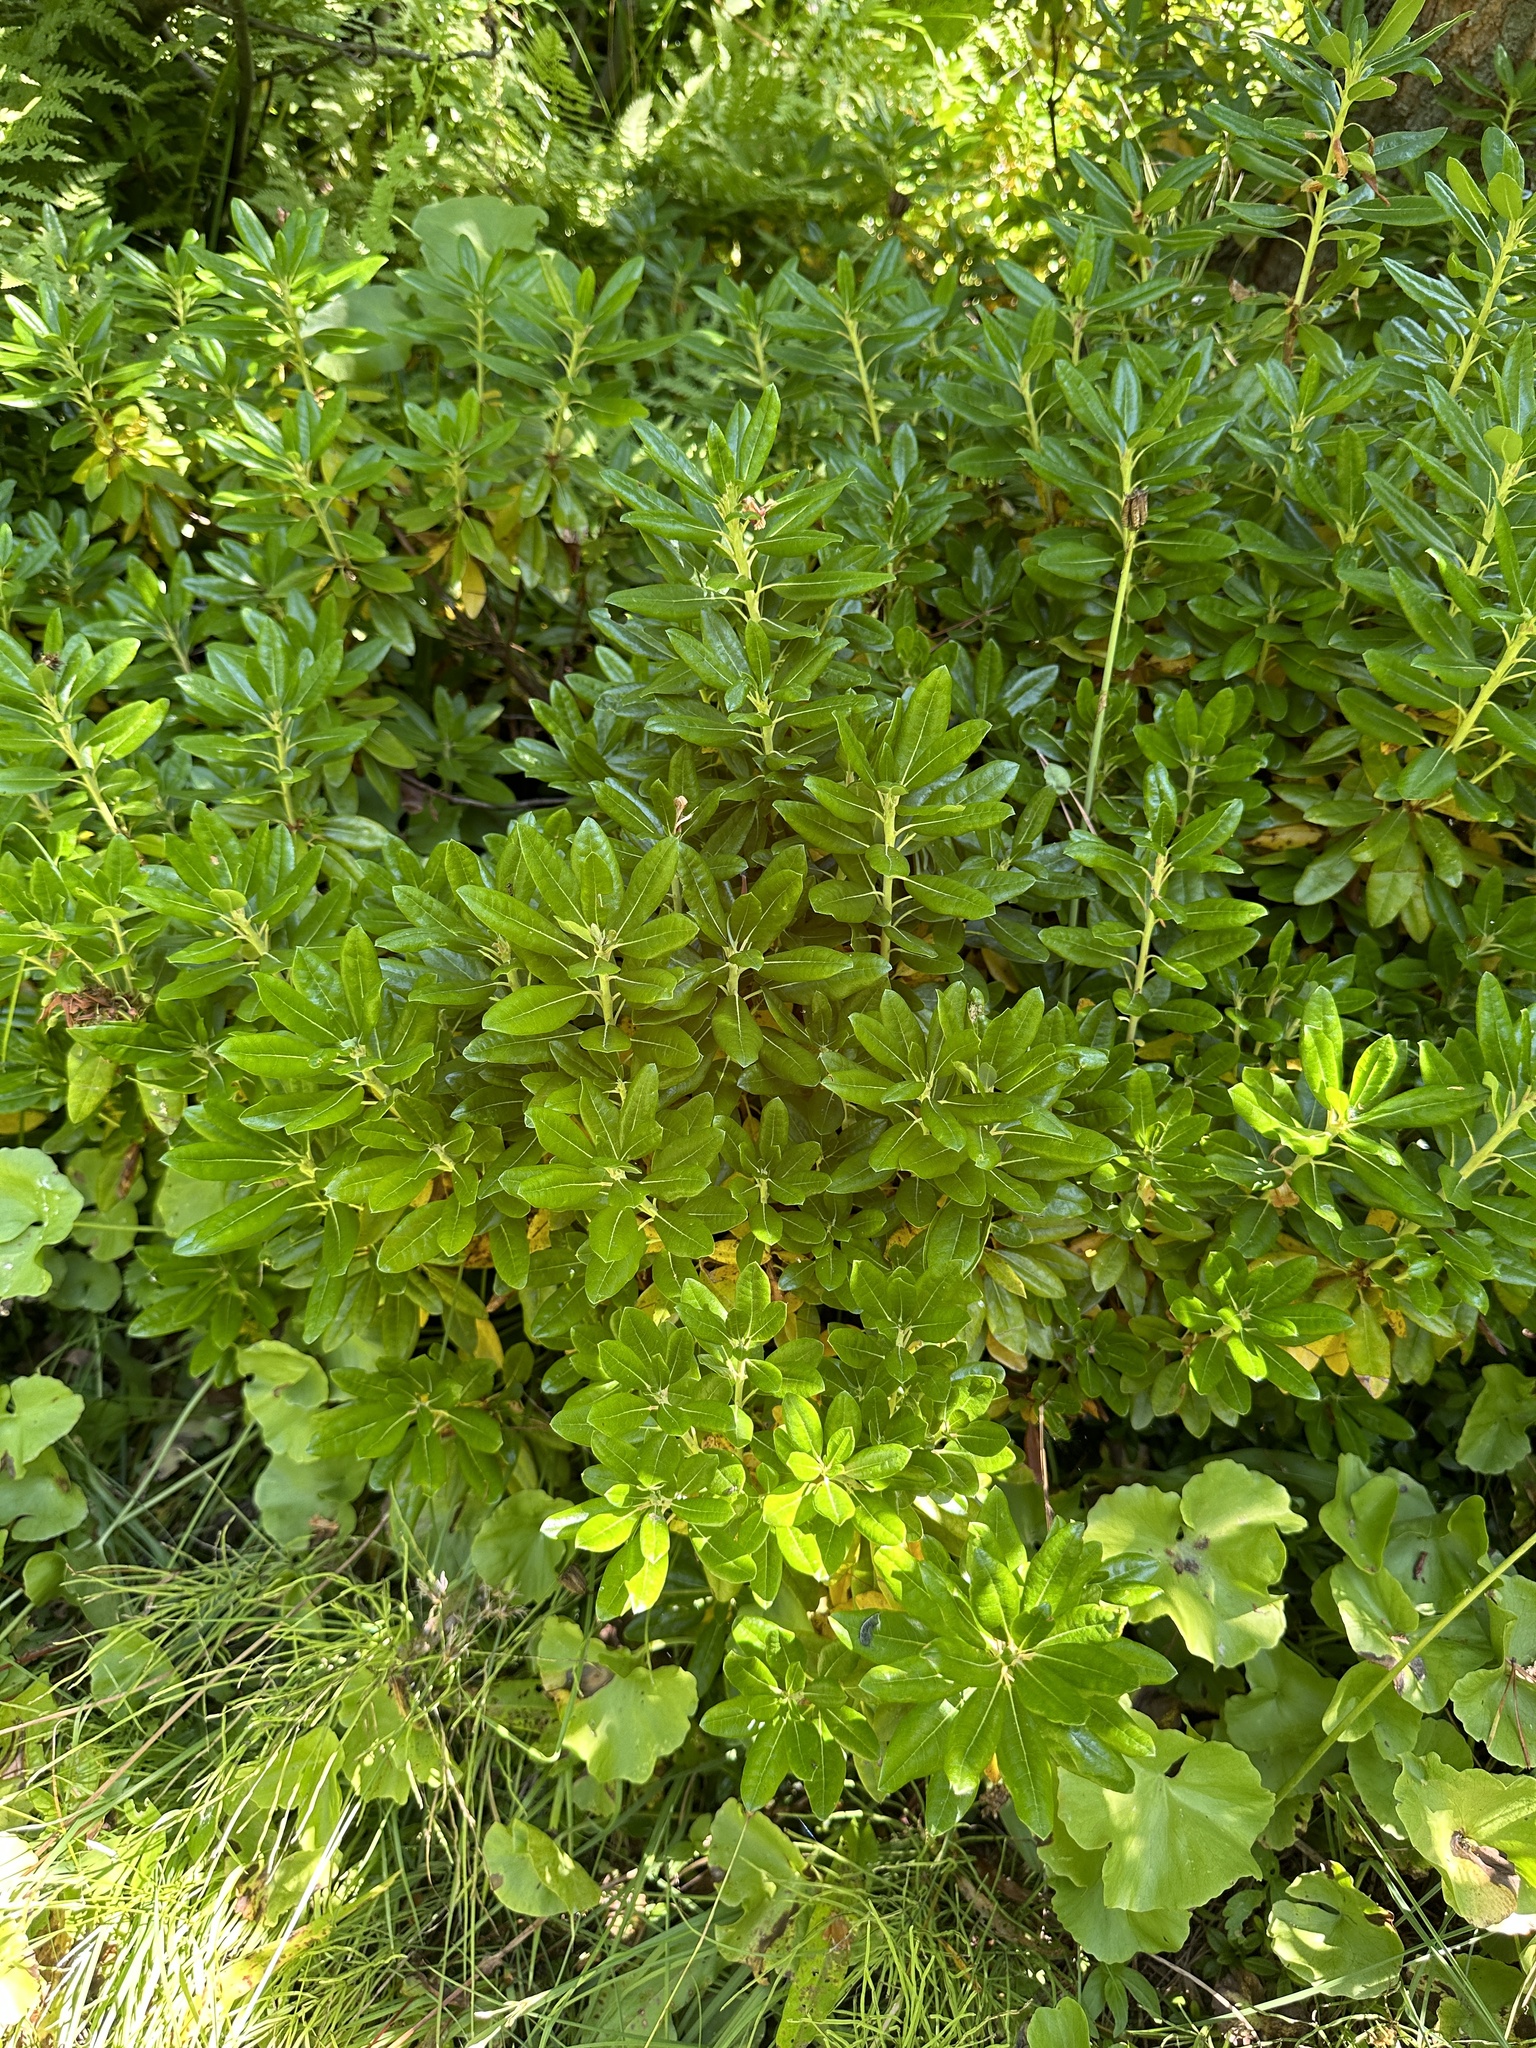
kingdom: Plantae
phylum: Tracheophyta
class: Magnoliopsida
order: Ericales
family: Ericaceae
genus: Rhododendron
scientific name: Rhododendron occidentale
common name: Western azalea
